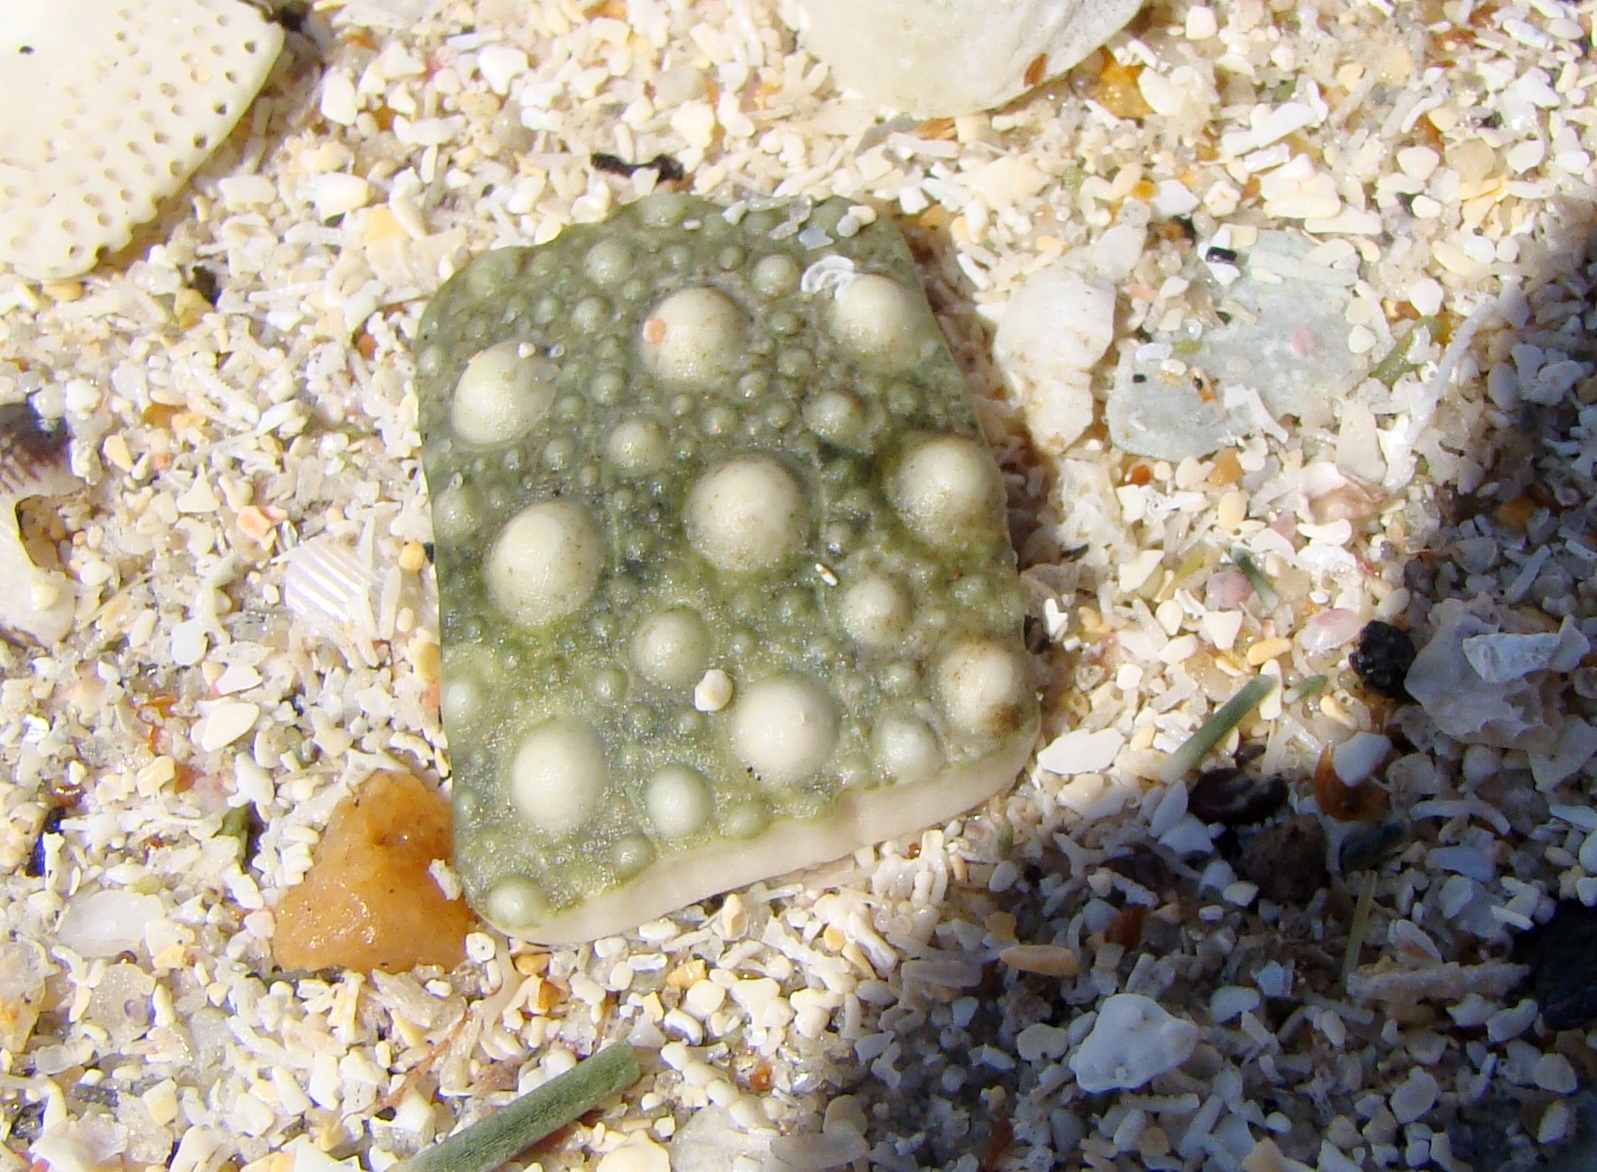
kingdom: Animalia
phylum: Echinodermata
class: Echinoidea
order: Camarodonta
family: Echinometridae
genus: Evechinus
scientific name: Evechinus chloroticus
